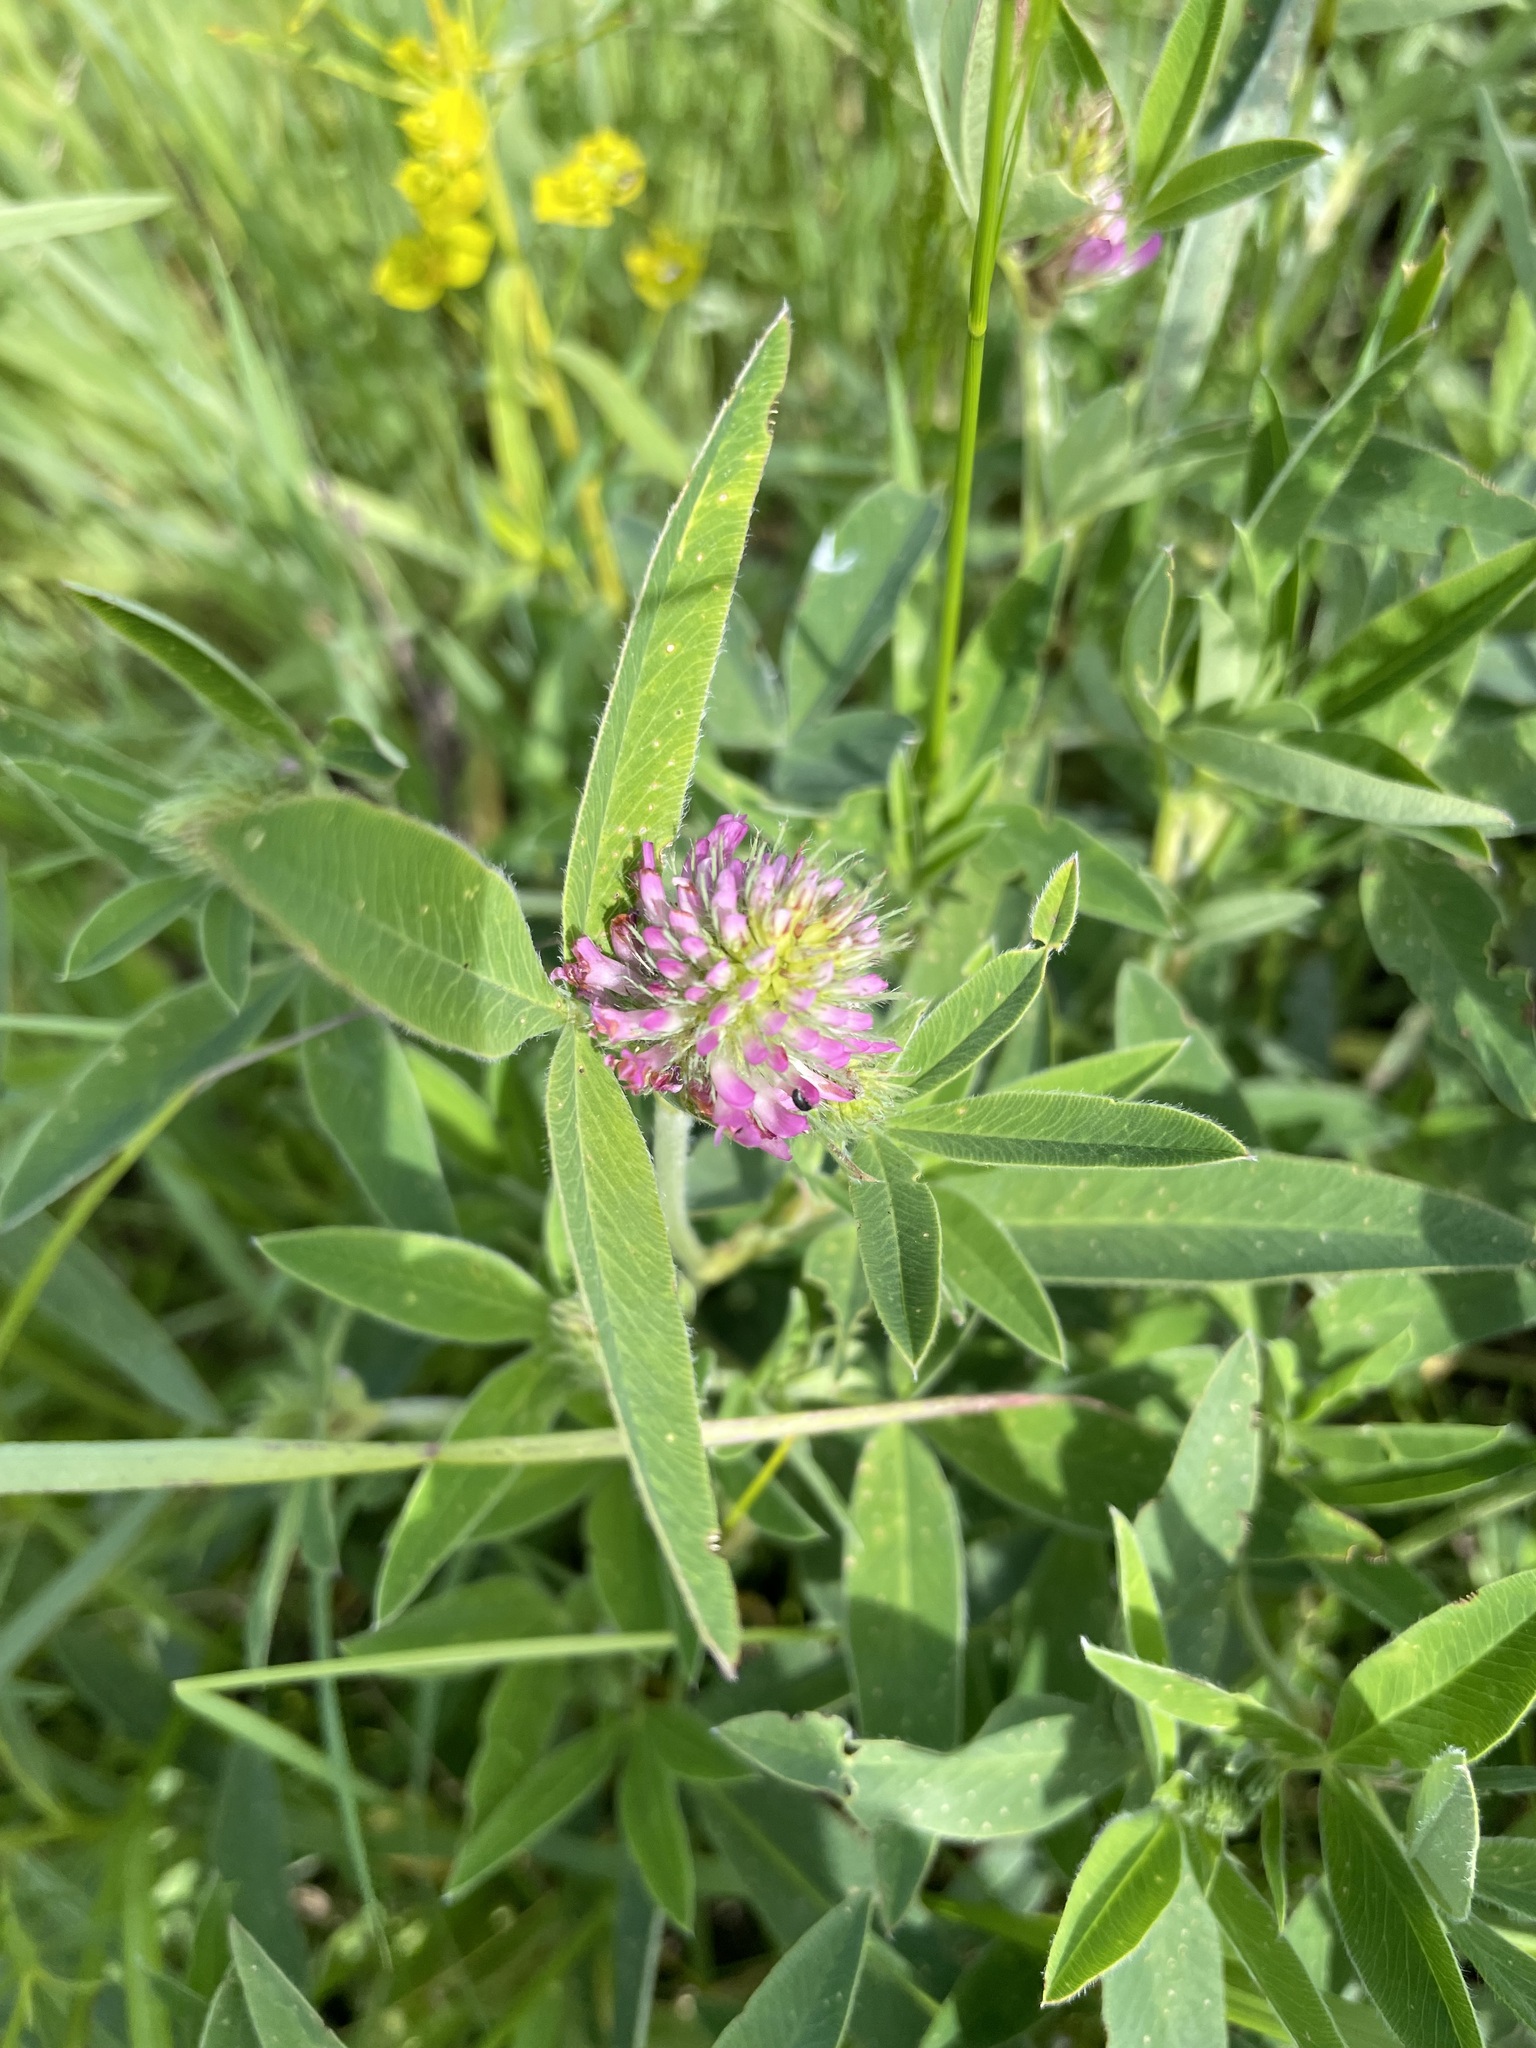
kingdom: Plantae
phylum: Tracheophyta
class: Magnoliopsida
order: Fabales
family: Fabaceae
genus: Trifolium
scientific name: Trifolium medium
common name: Zigzag clover
